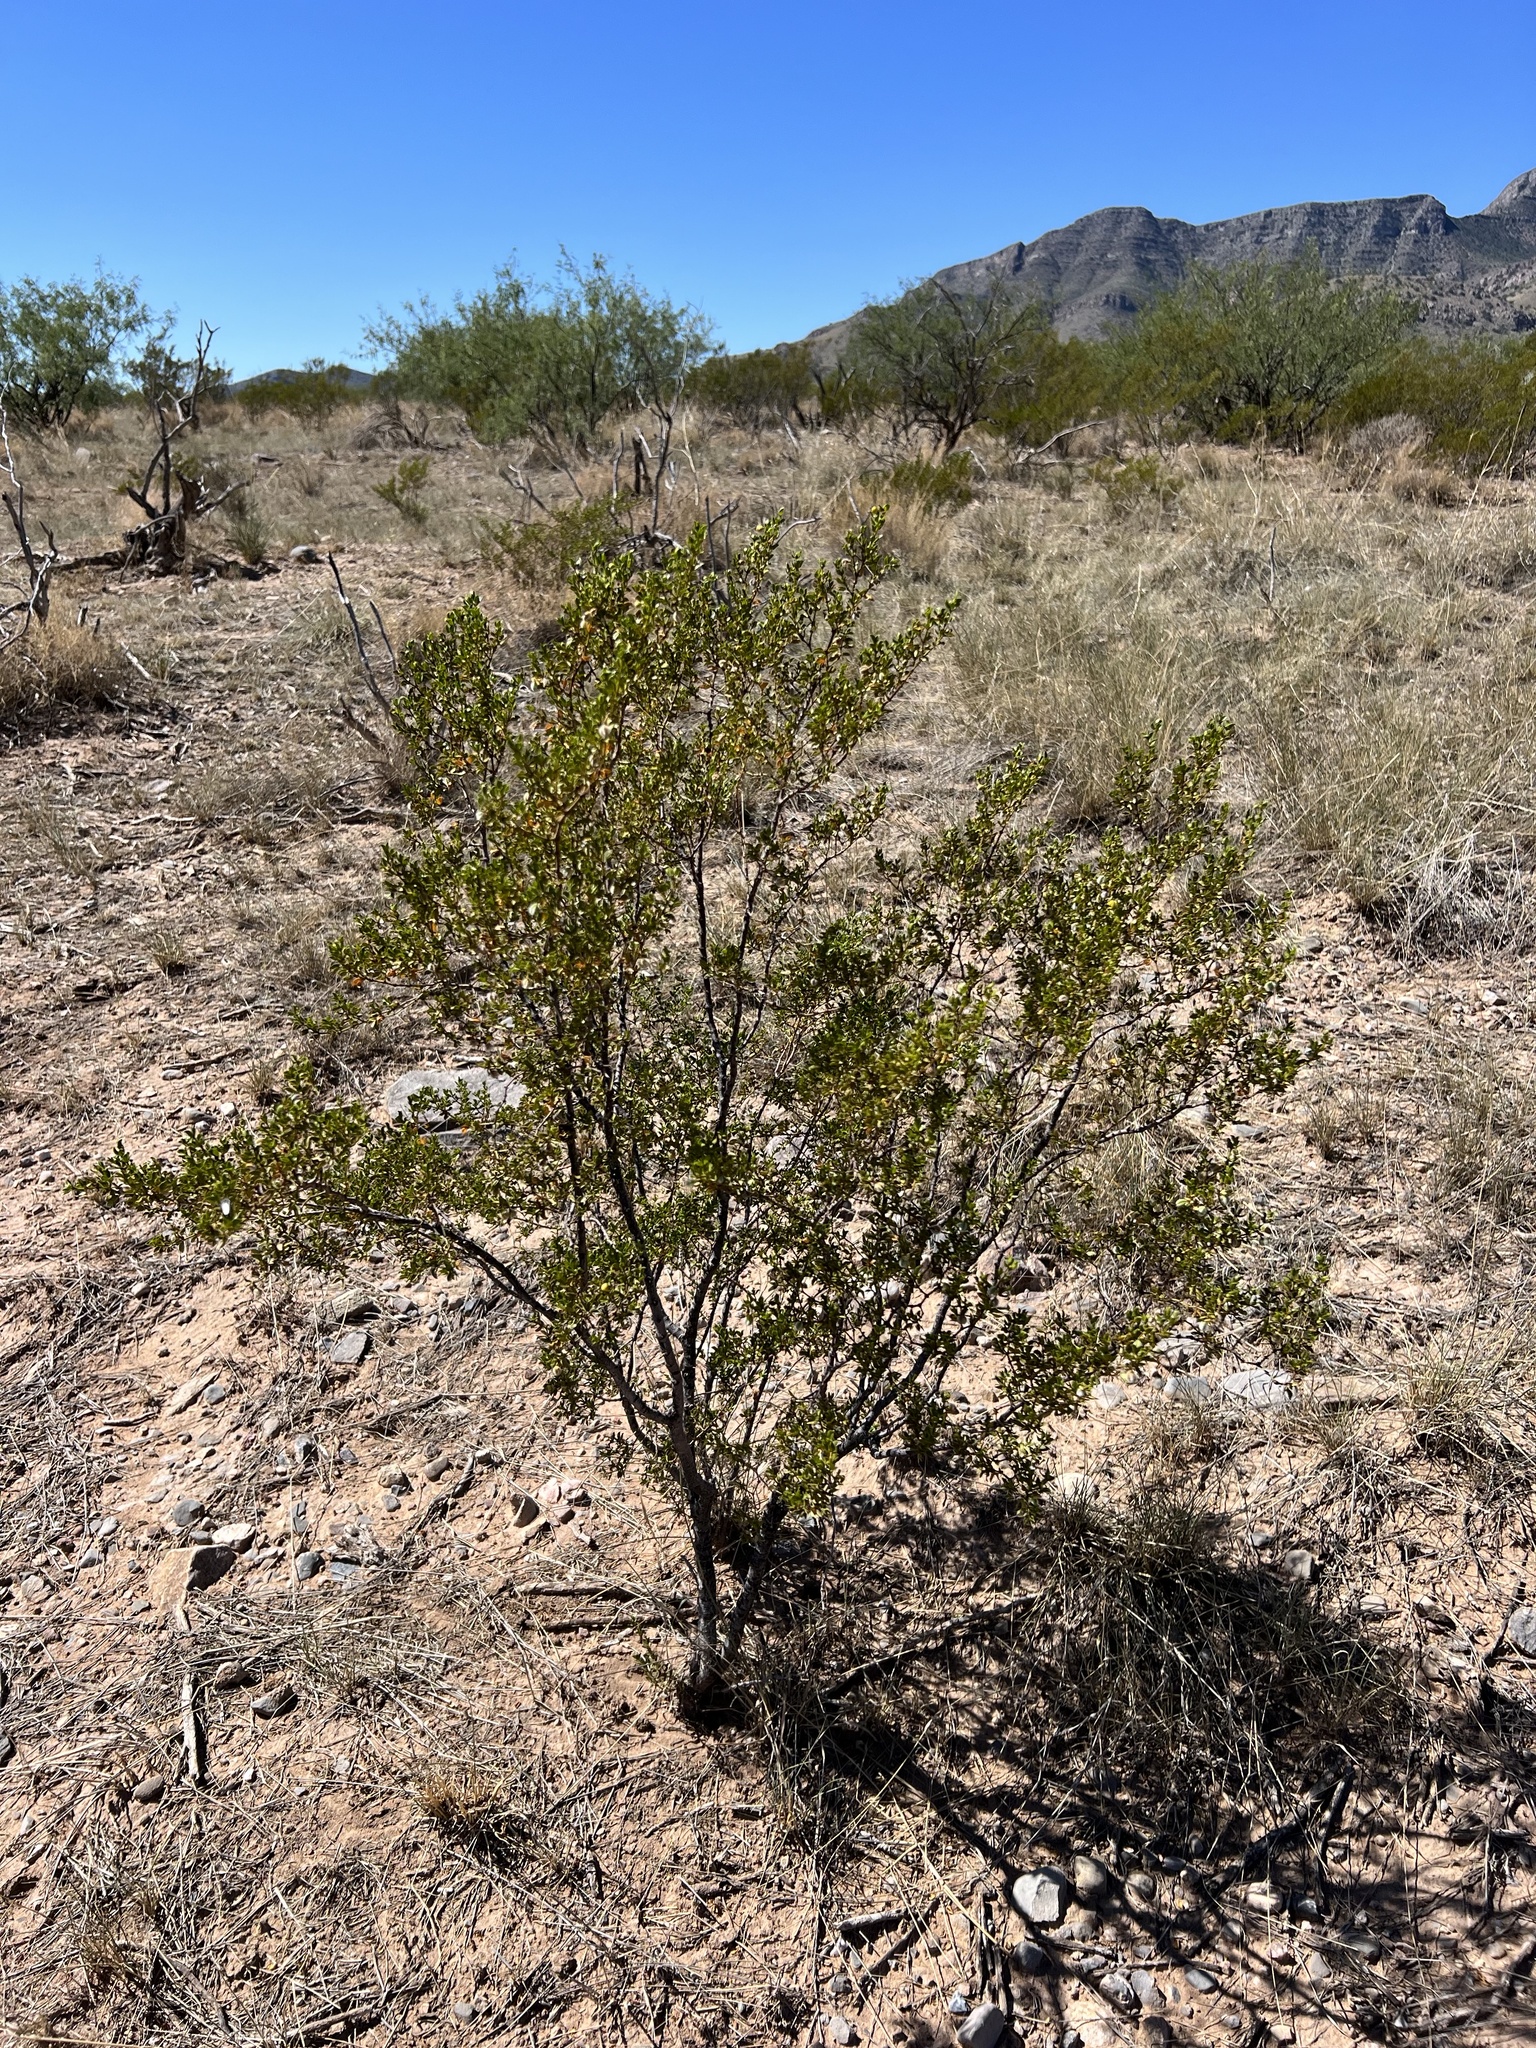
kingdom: Plantae
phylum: Tracheophyta
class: Magnoliopsida
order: Zygophyllales
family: Zygophyllaceae
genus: Larrea
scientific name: Larrea tridentata
